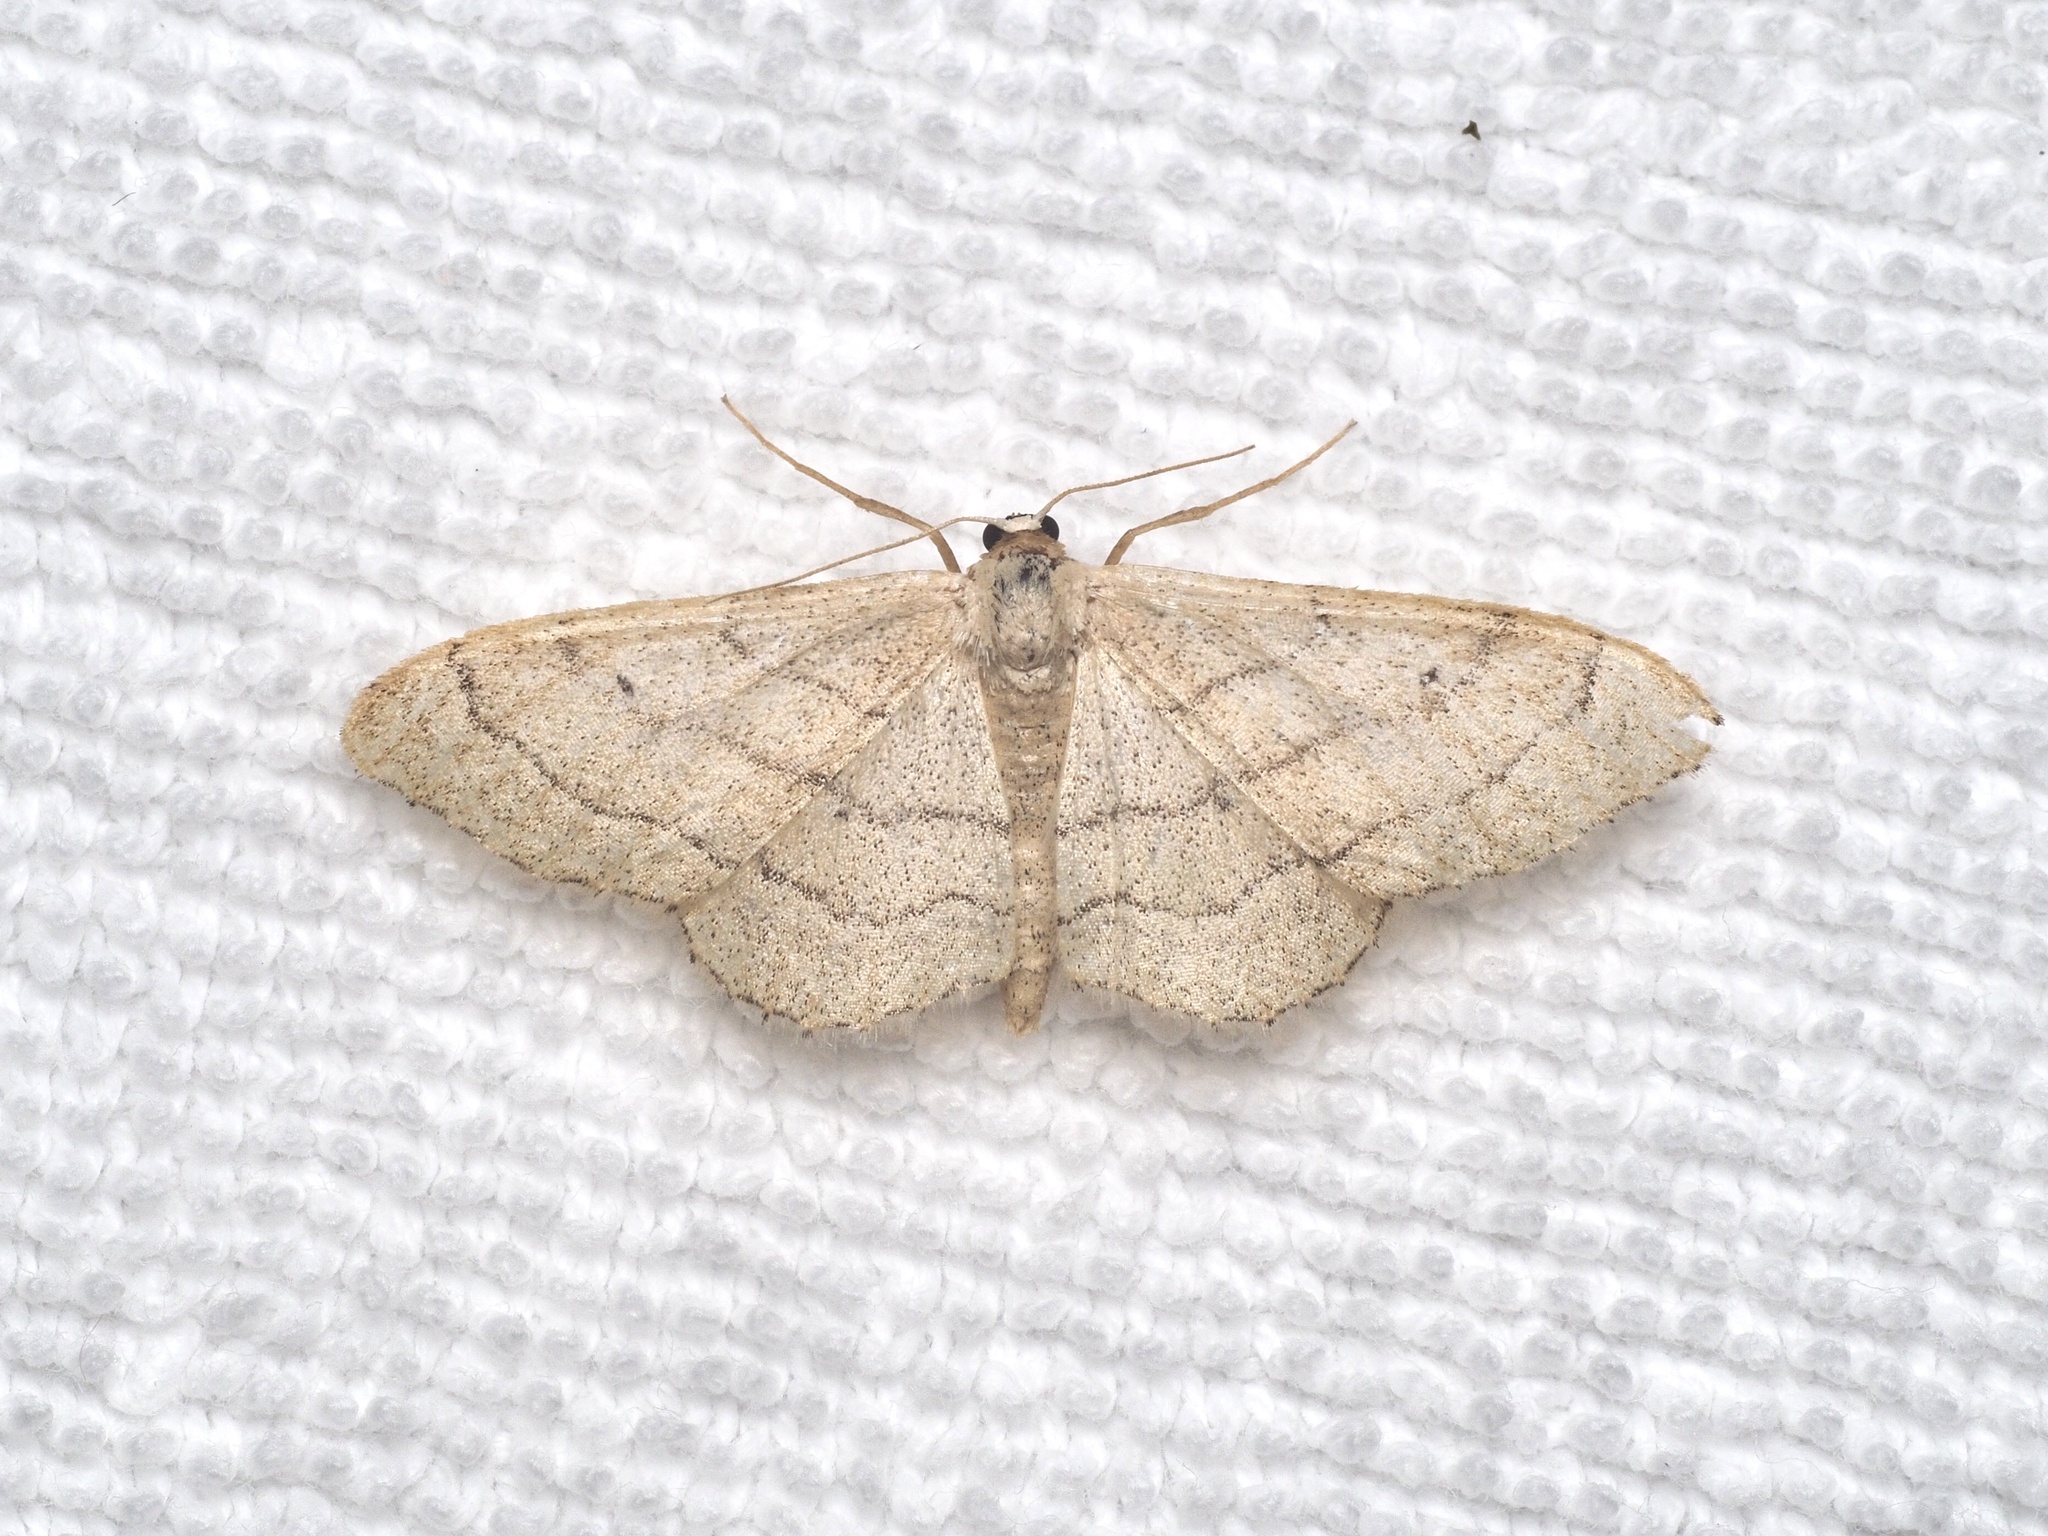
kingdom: Animalia
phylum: Arthropoda
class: Insecta
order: Lepidoptera
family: Geometridae
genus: Idaea
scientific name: Idaea aversata
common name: Riband wave
